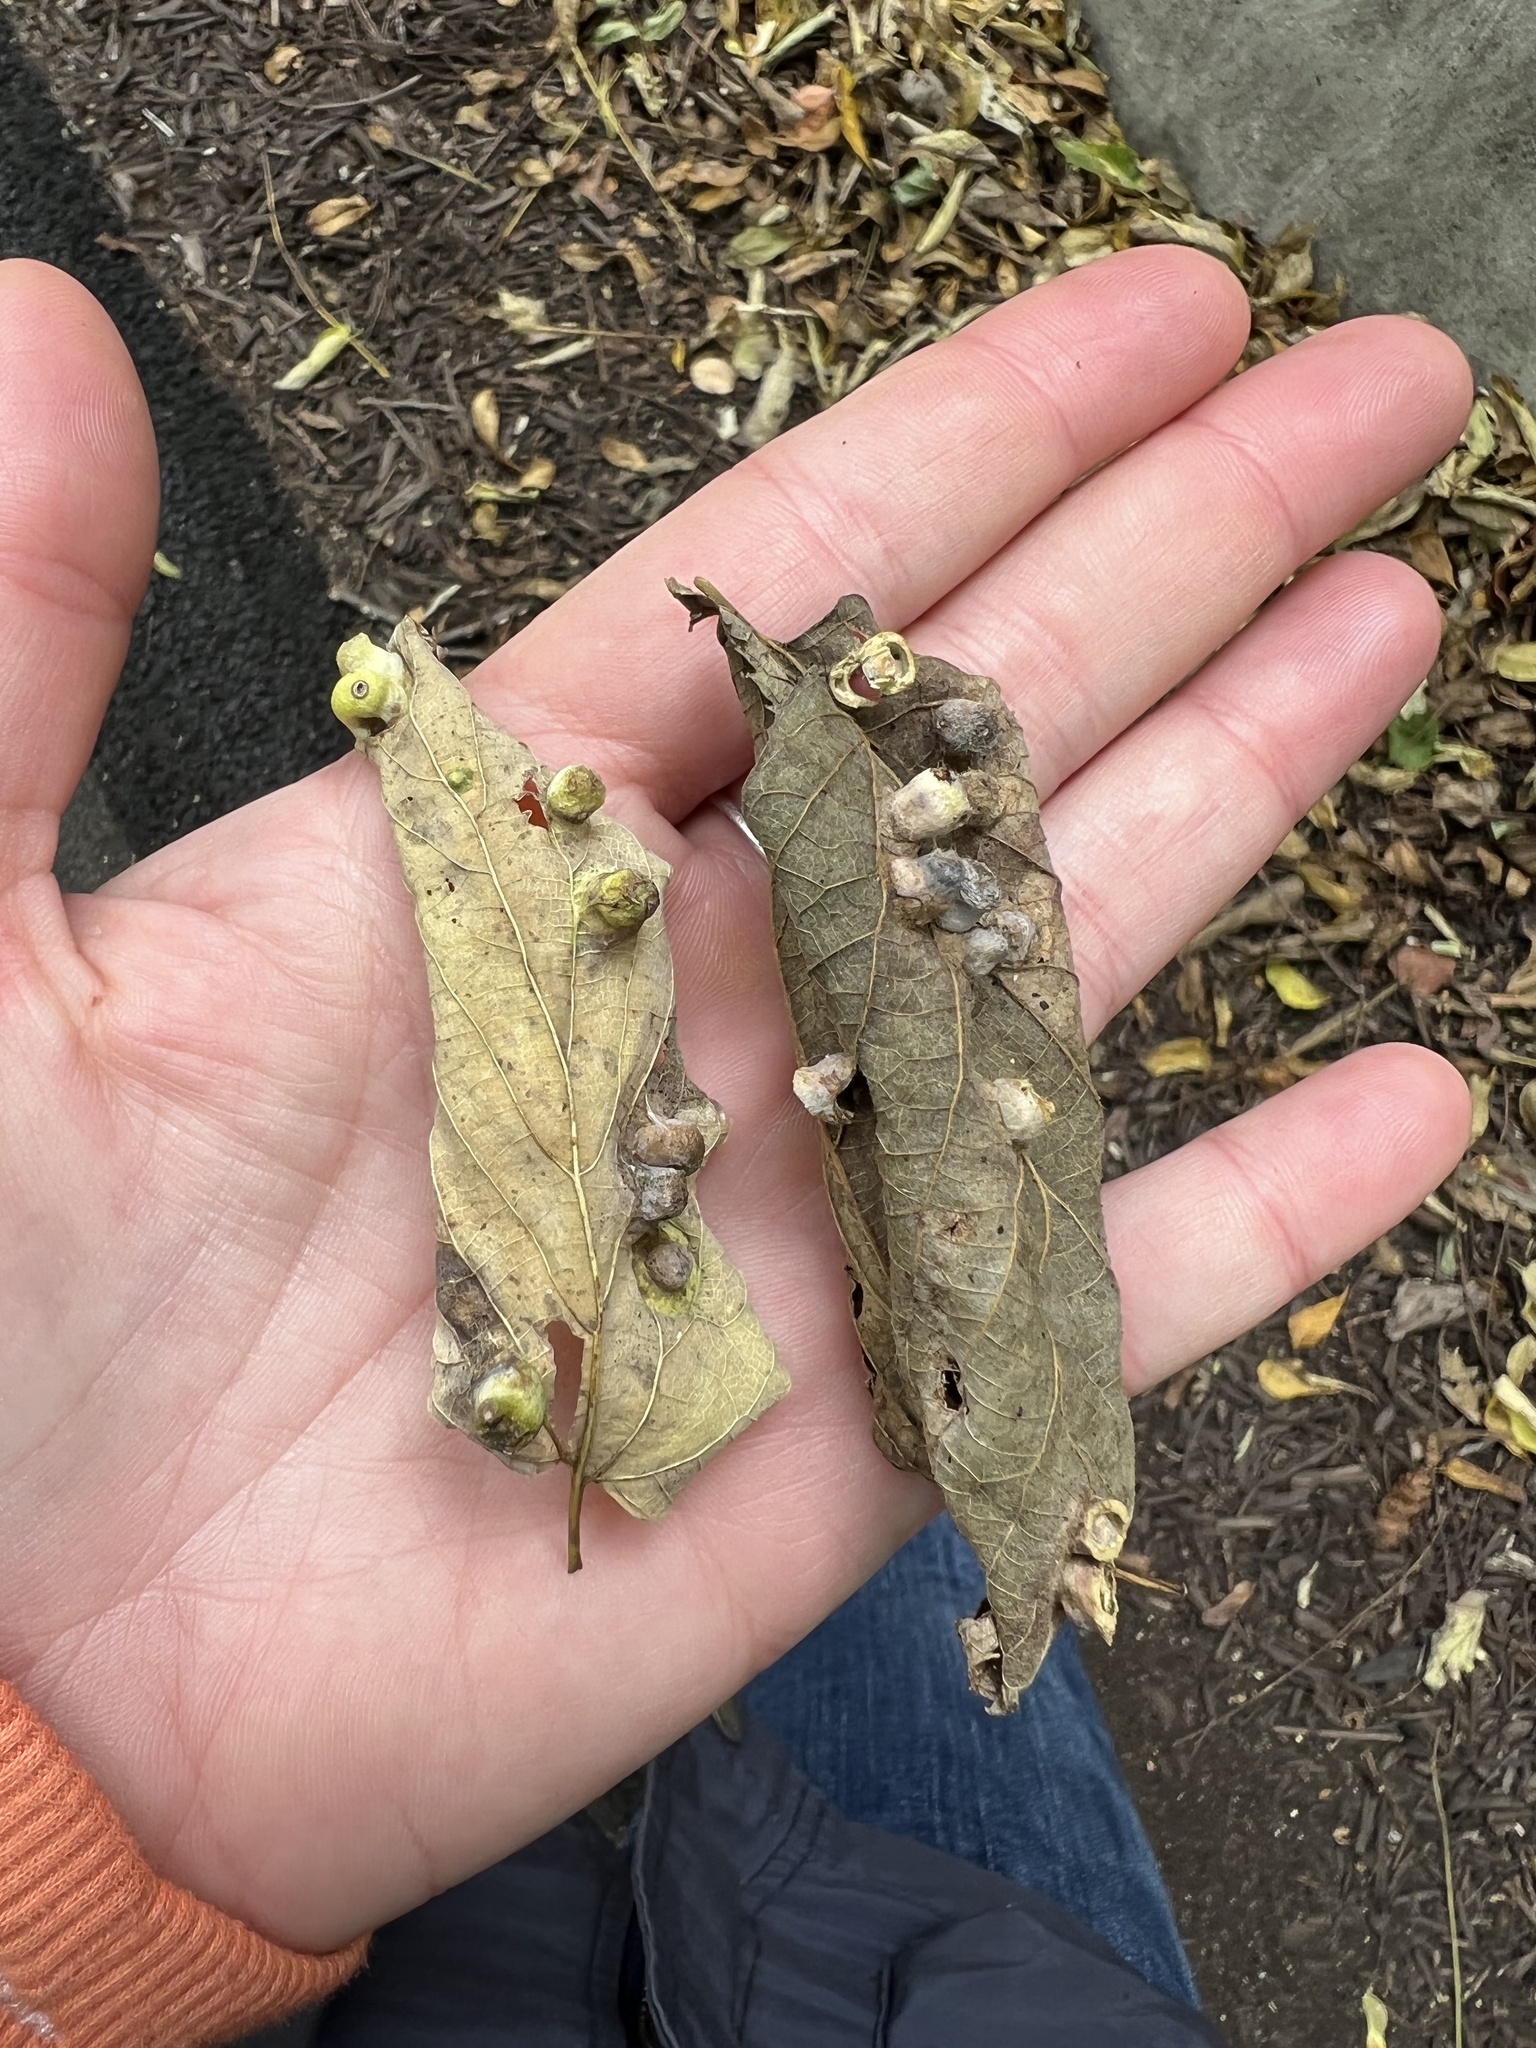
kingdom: Animalia
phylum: Arthropoda
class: Insecta
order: Hemiptera
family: Aphalaridae
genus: Pachypsylla
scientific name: Pachypsylla celtidismamma
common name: Hackberry nipplegall psyllid
